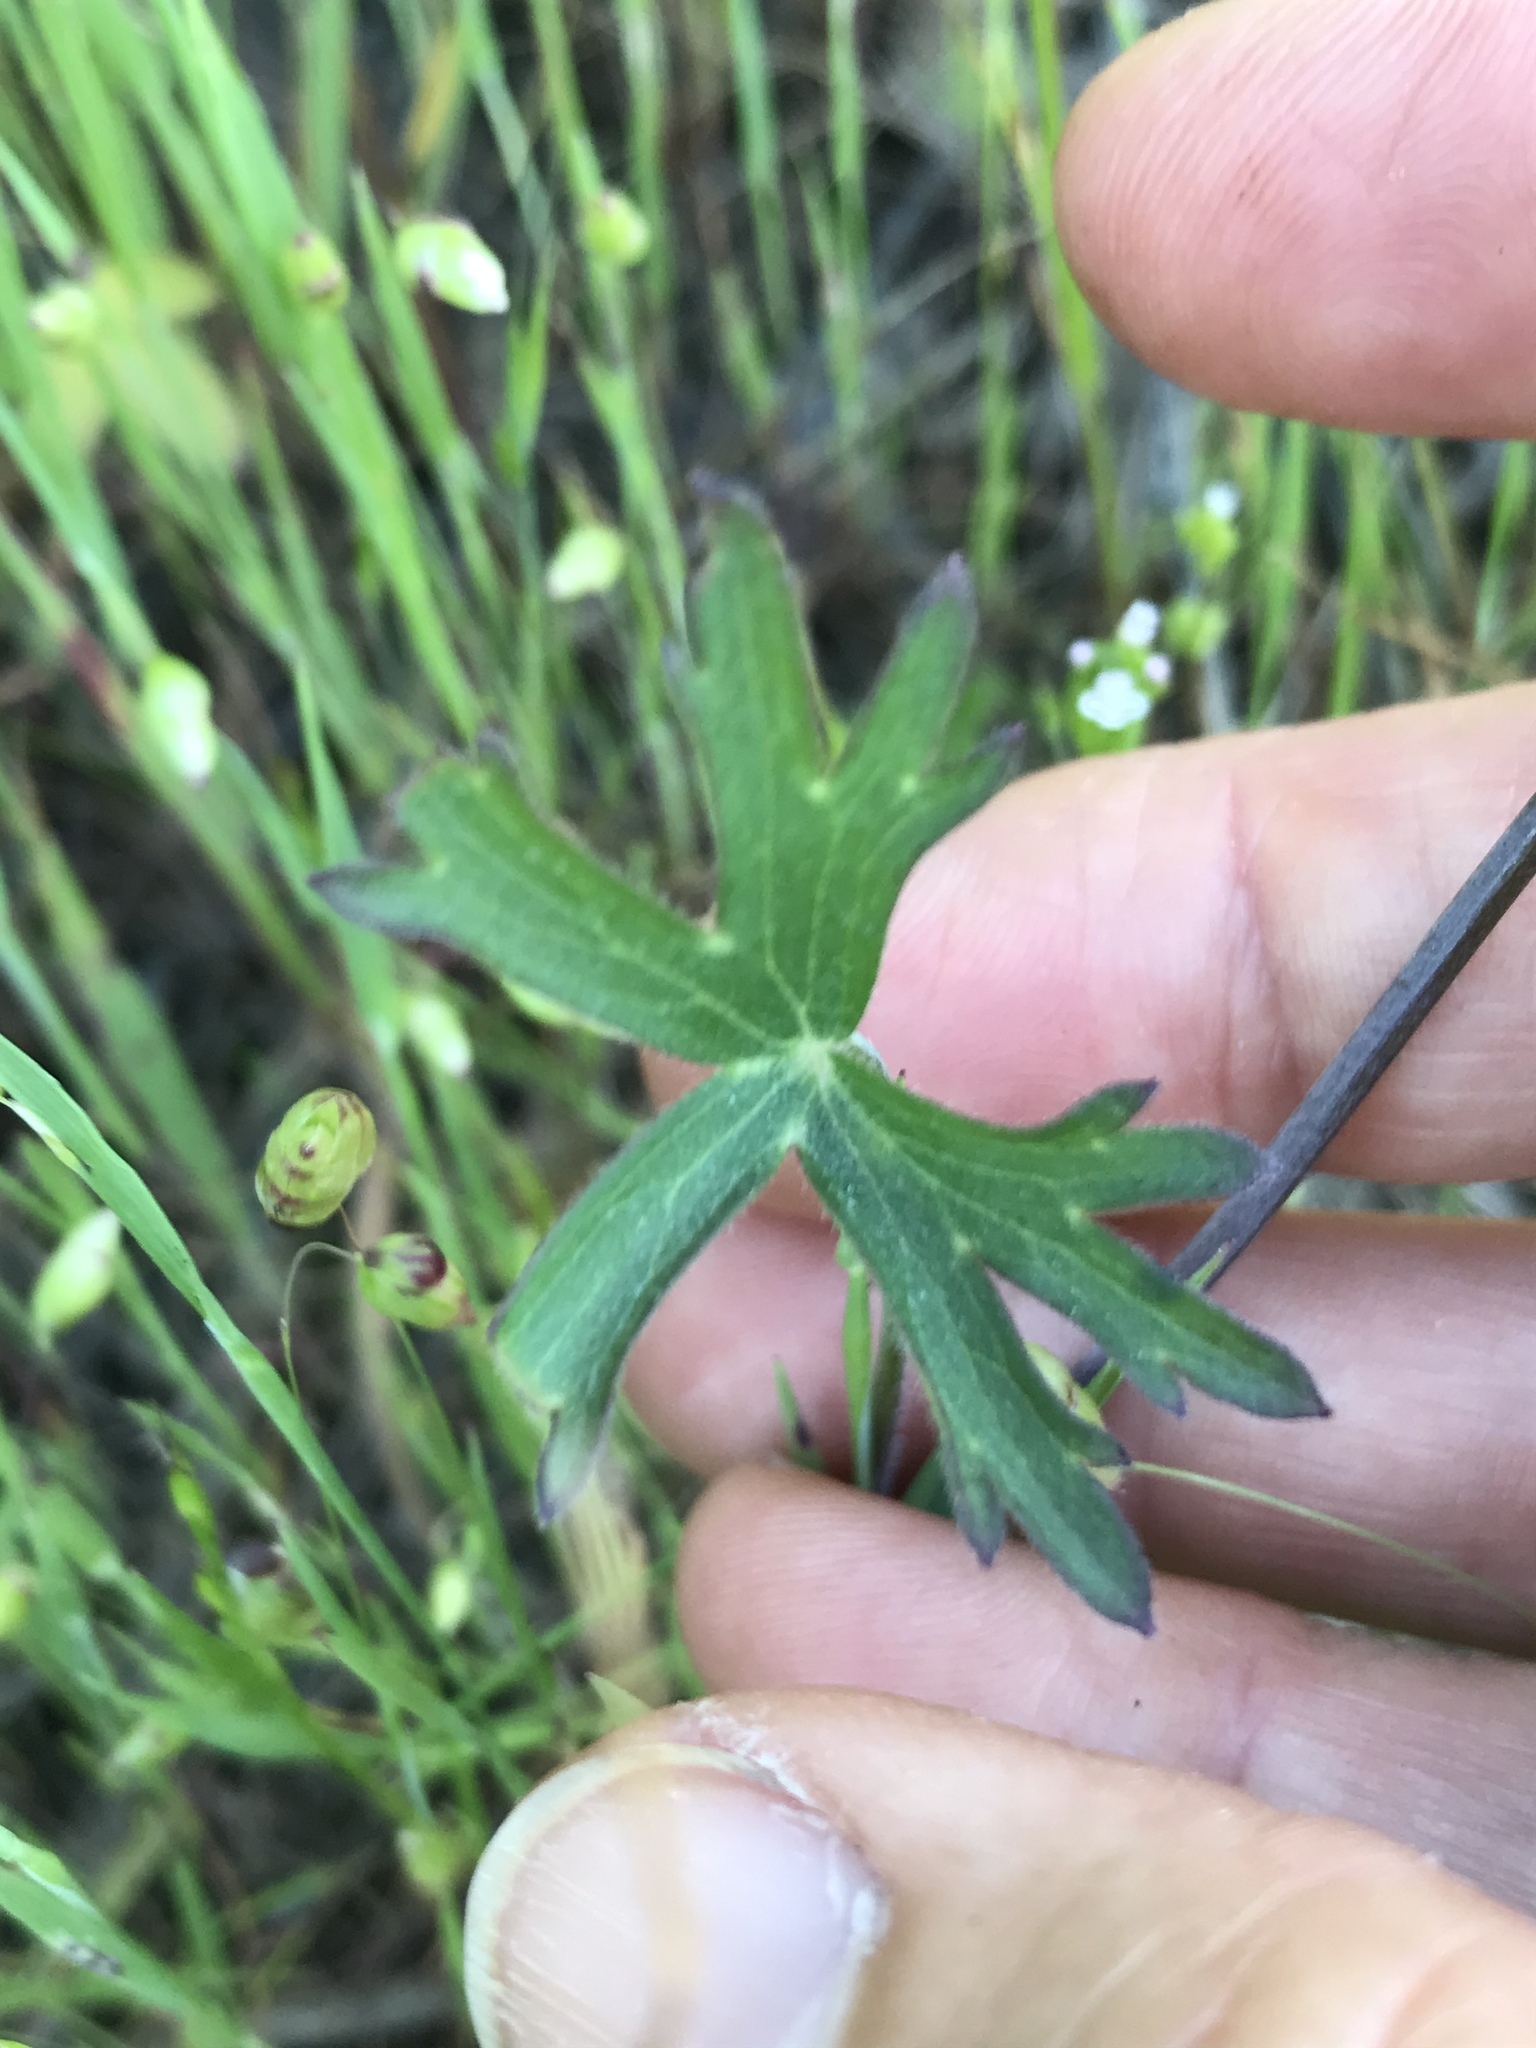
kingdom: Plantae
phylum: Tracheophyta
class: Magnoliopsida
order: Ranunculales
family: Ranunculaceae
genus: Delphinium
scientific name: Delphinium patens
